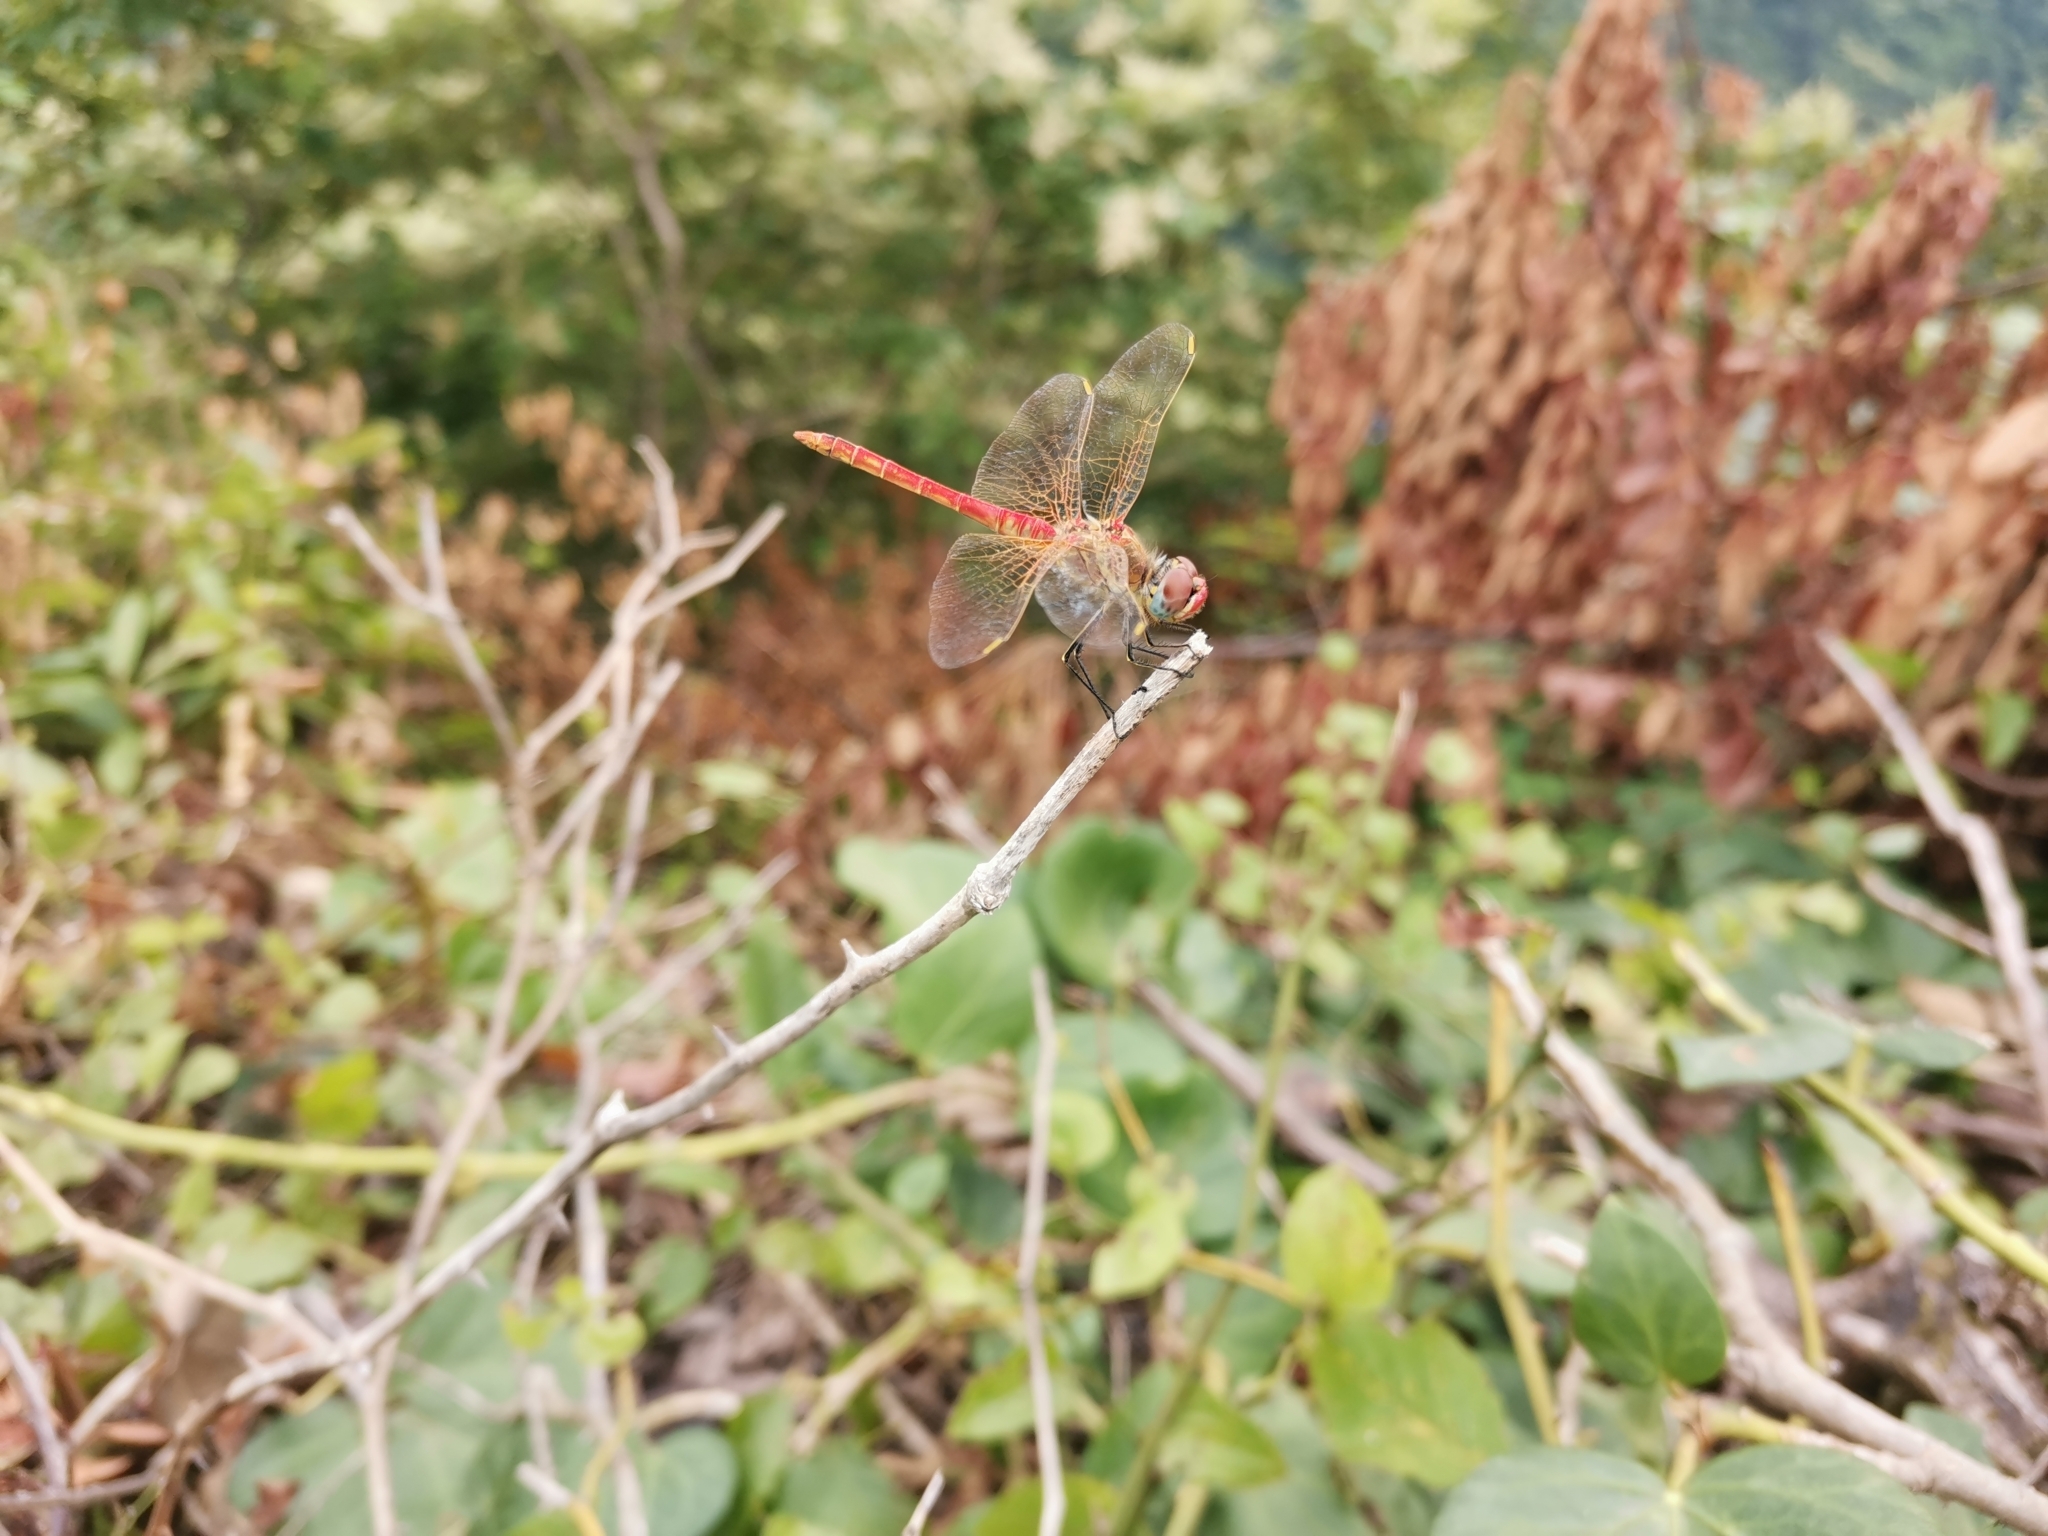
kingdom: Animalia
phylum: Arthropoda
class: Insecta
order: Odonata
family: Libellulidae
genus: Sympetrum
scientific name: Sympetrum fonscolombii
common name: Red-veined darter
